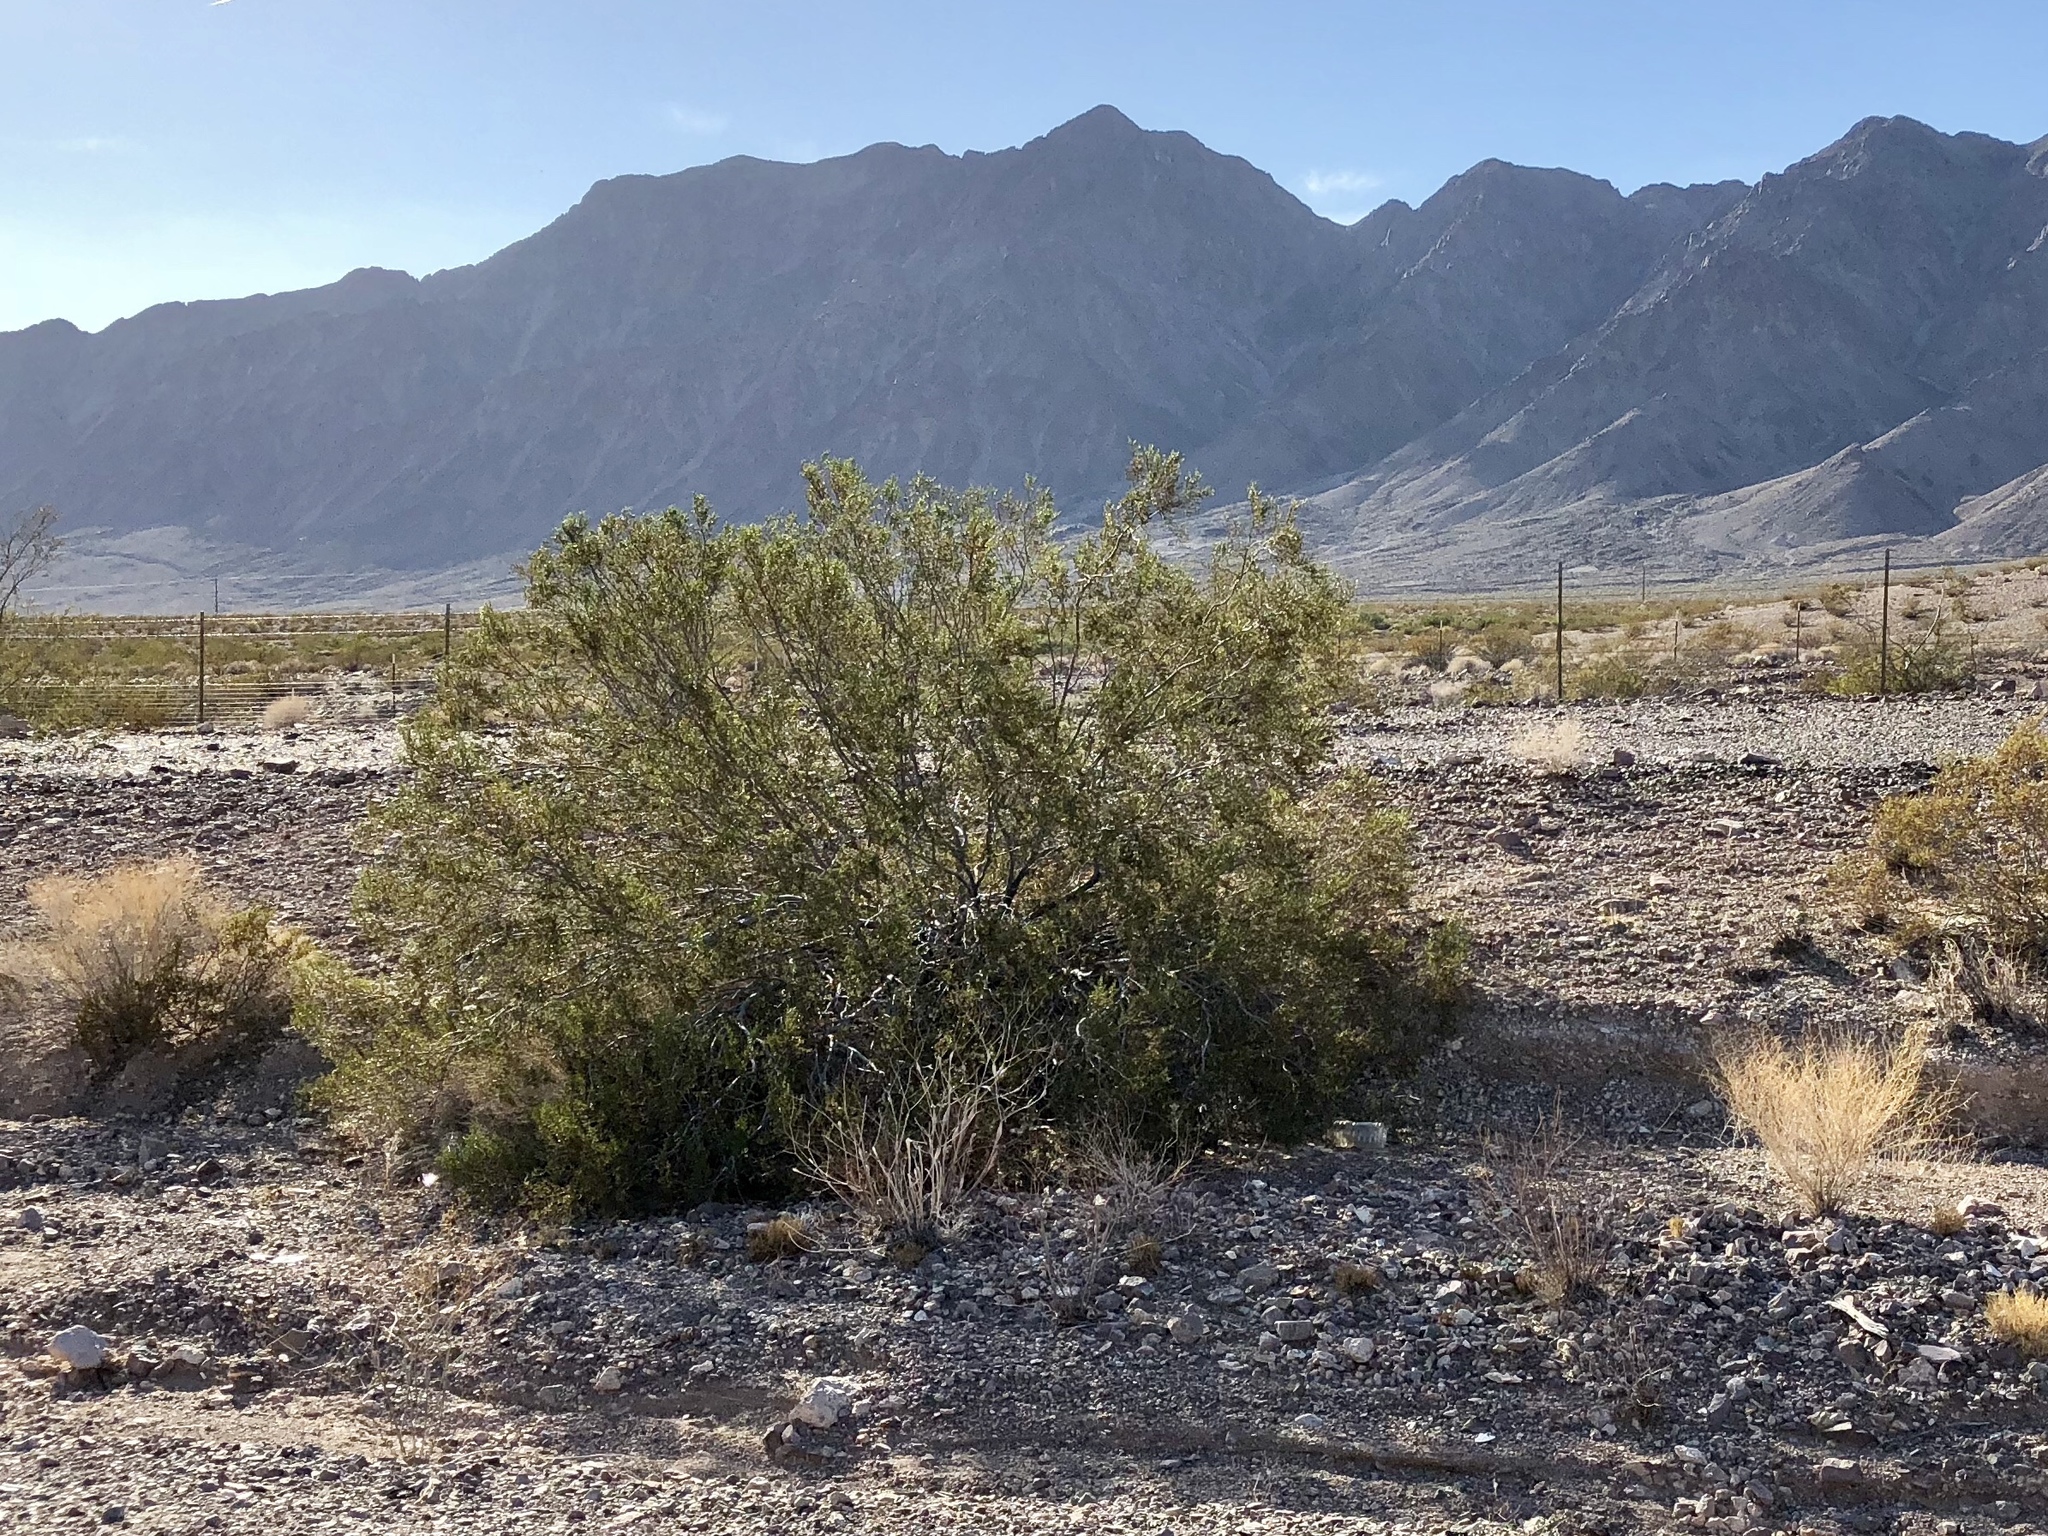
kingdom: Plantae
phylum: Tracheophyta
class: Magnoliopsida
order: Zygophyllales
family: Zygophyllaceae
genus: Larrea
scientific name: Larrea tridentata
